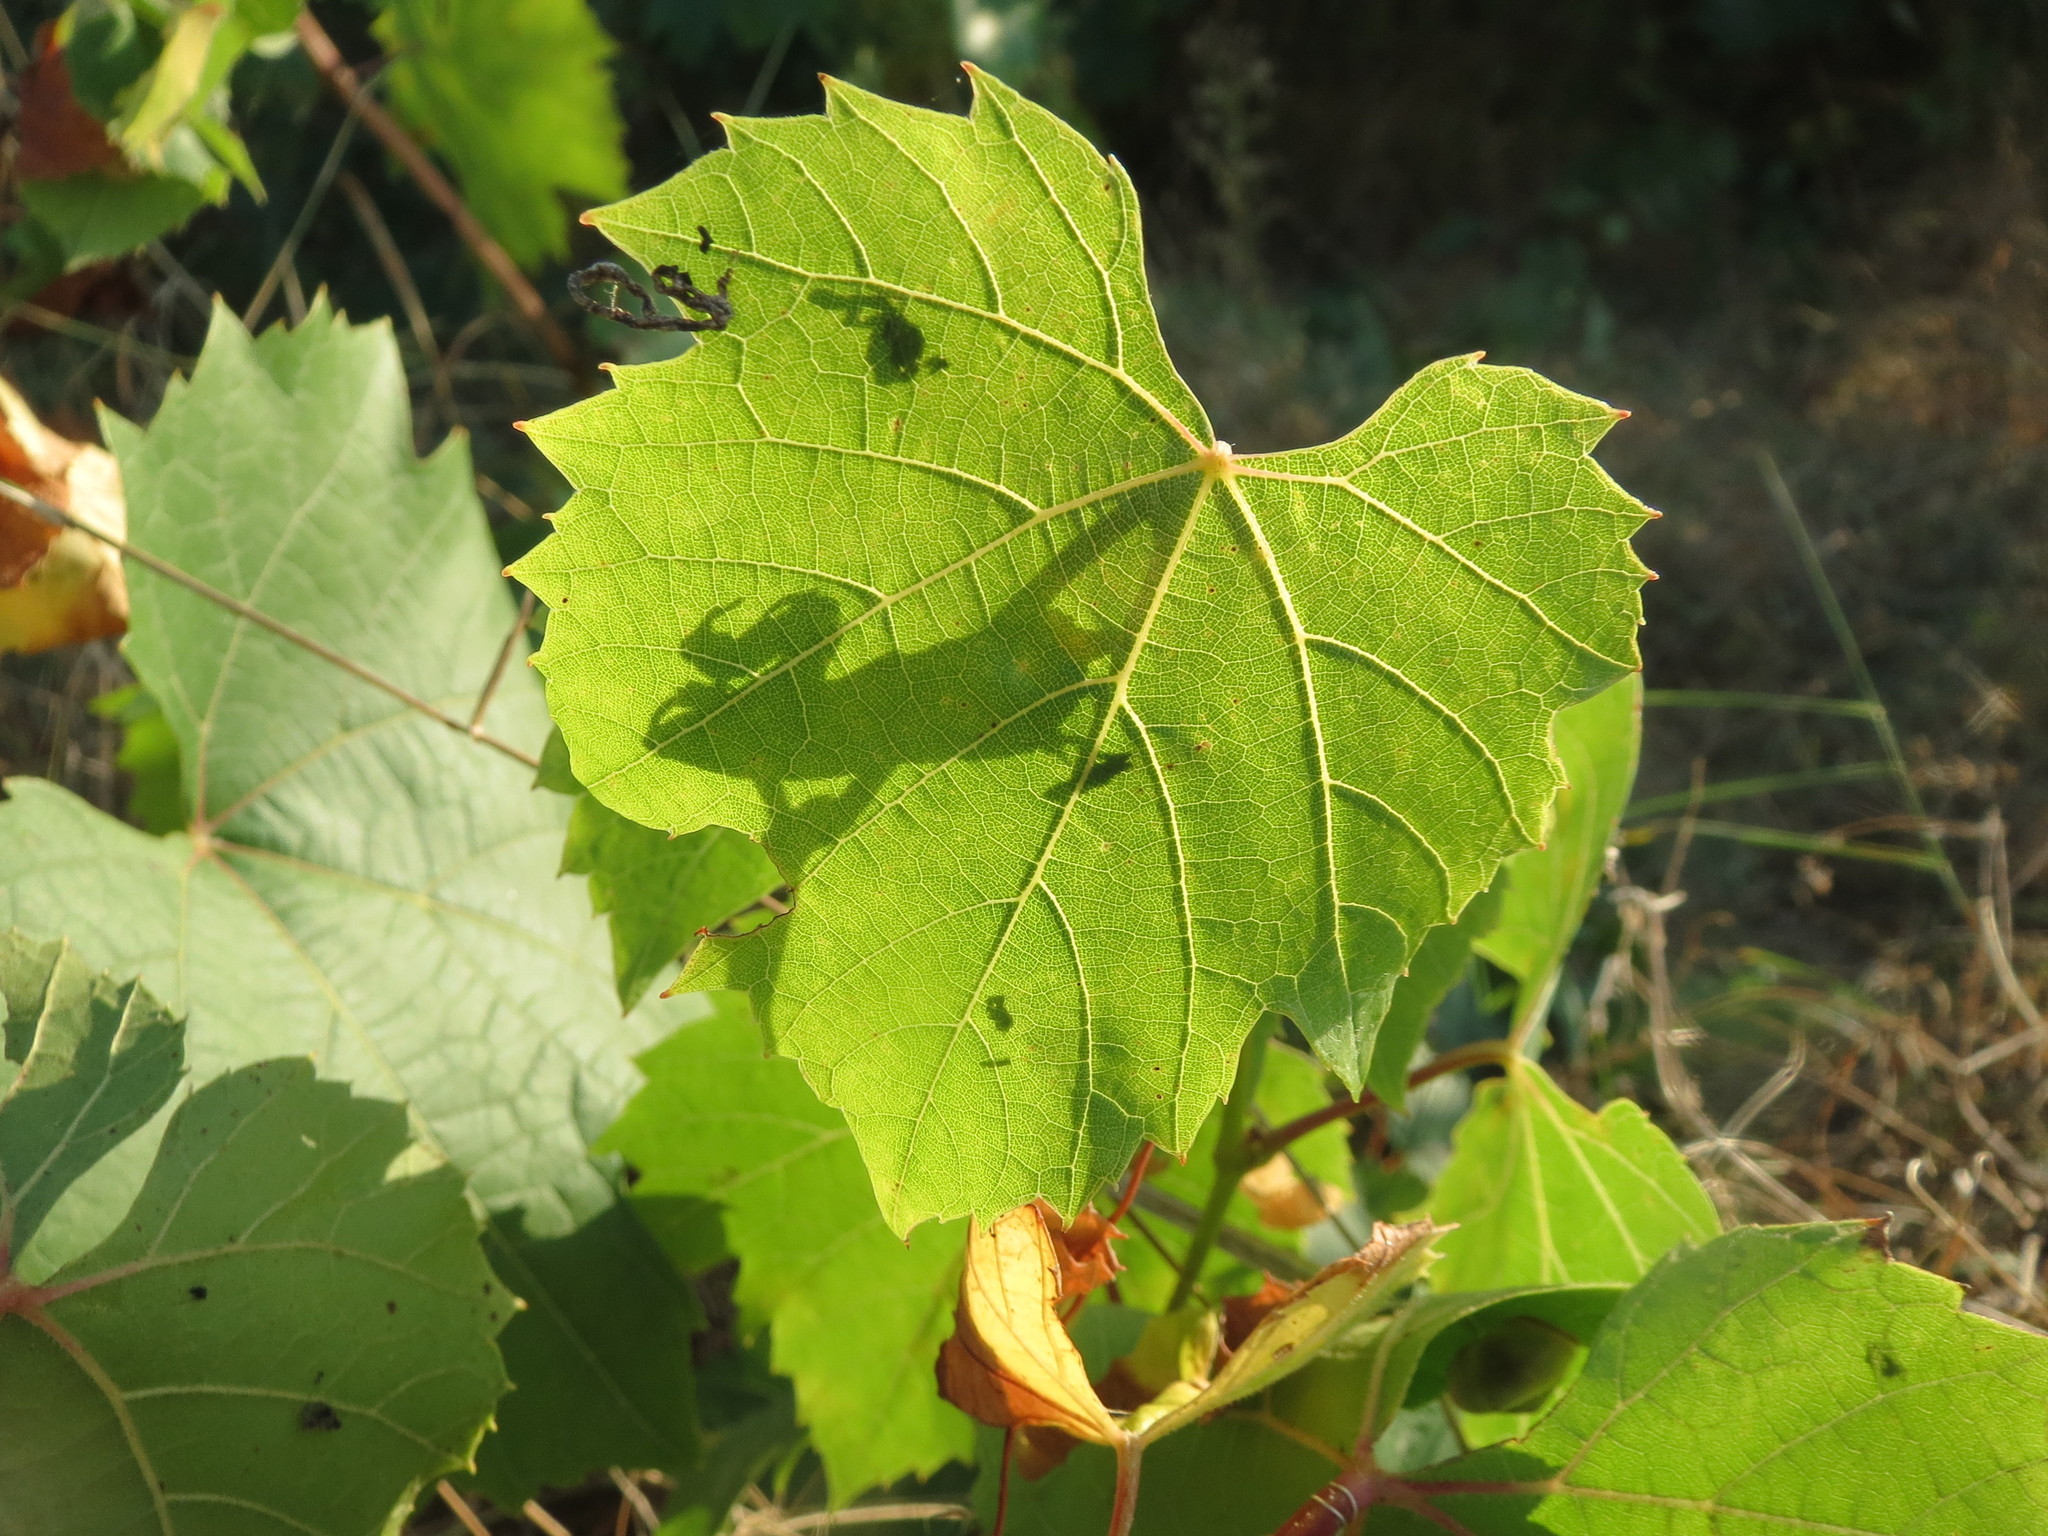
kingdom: Plantae
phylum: Tracheophyta
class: Magnoliopsida
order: Vitales
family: Vitaceae
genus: Vitis
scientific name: Vitis vinifera
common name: Grape-vine
